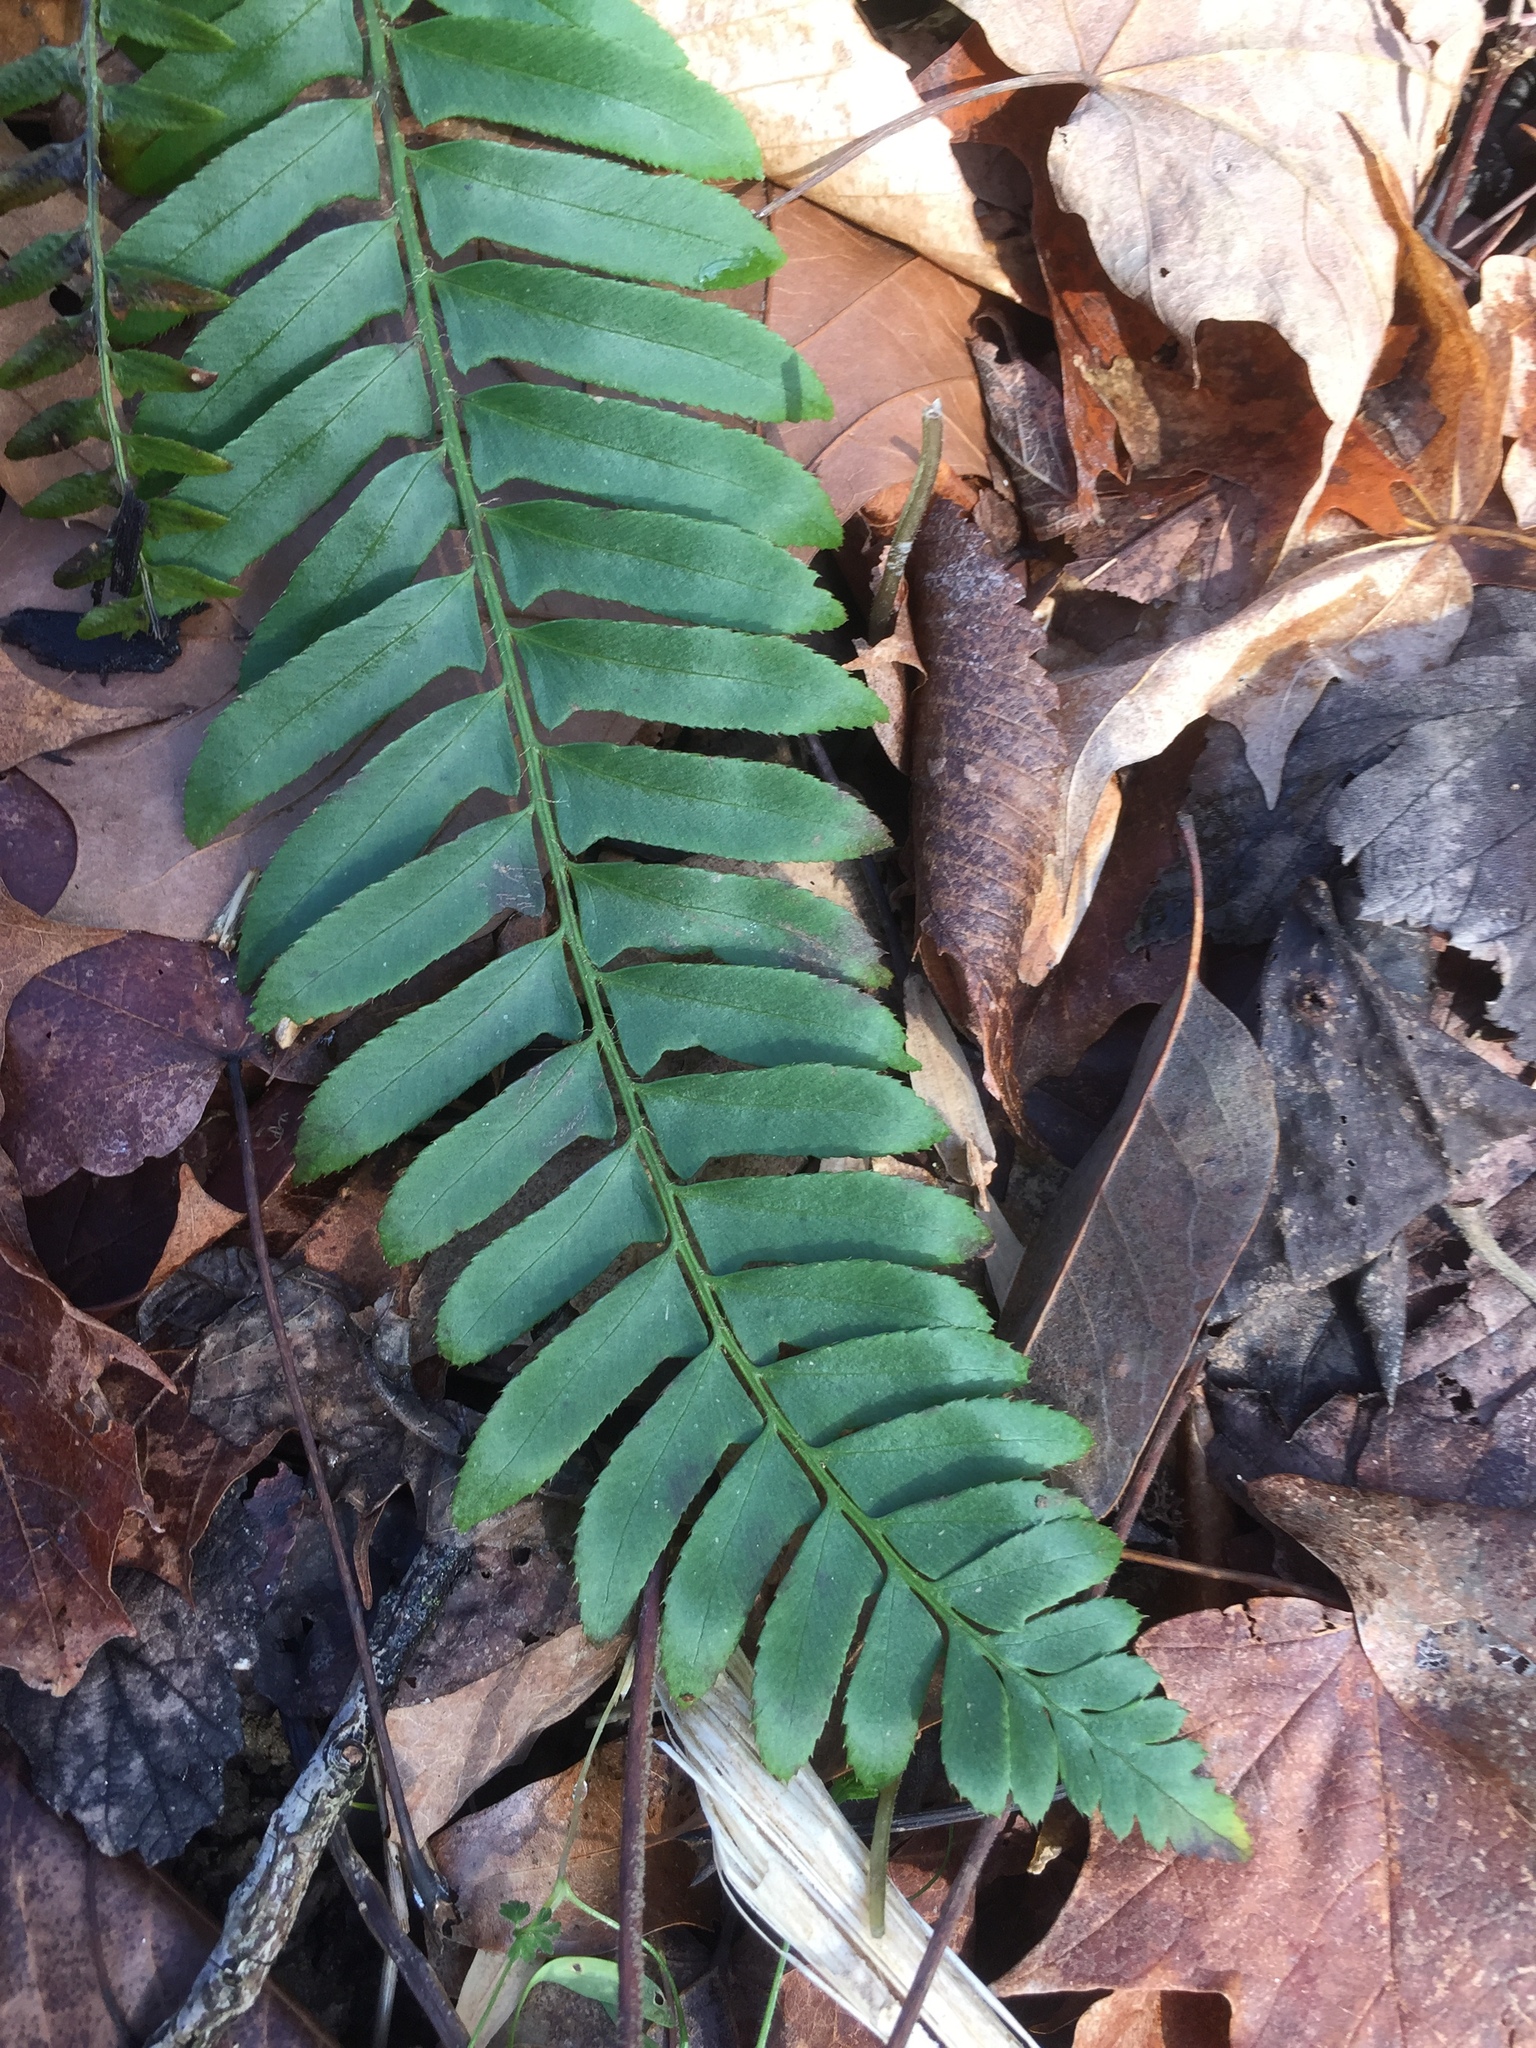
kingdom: Plantae
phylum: Tracheophyta
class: Polypodiopsida
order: Polypodiales
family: Dryopteridaceae
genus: Polystichum
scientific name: Polystichum acrostichoides
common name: Christmas fern
